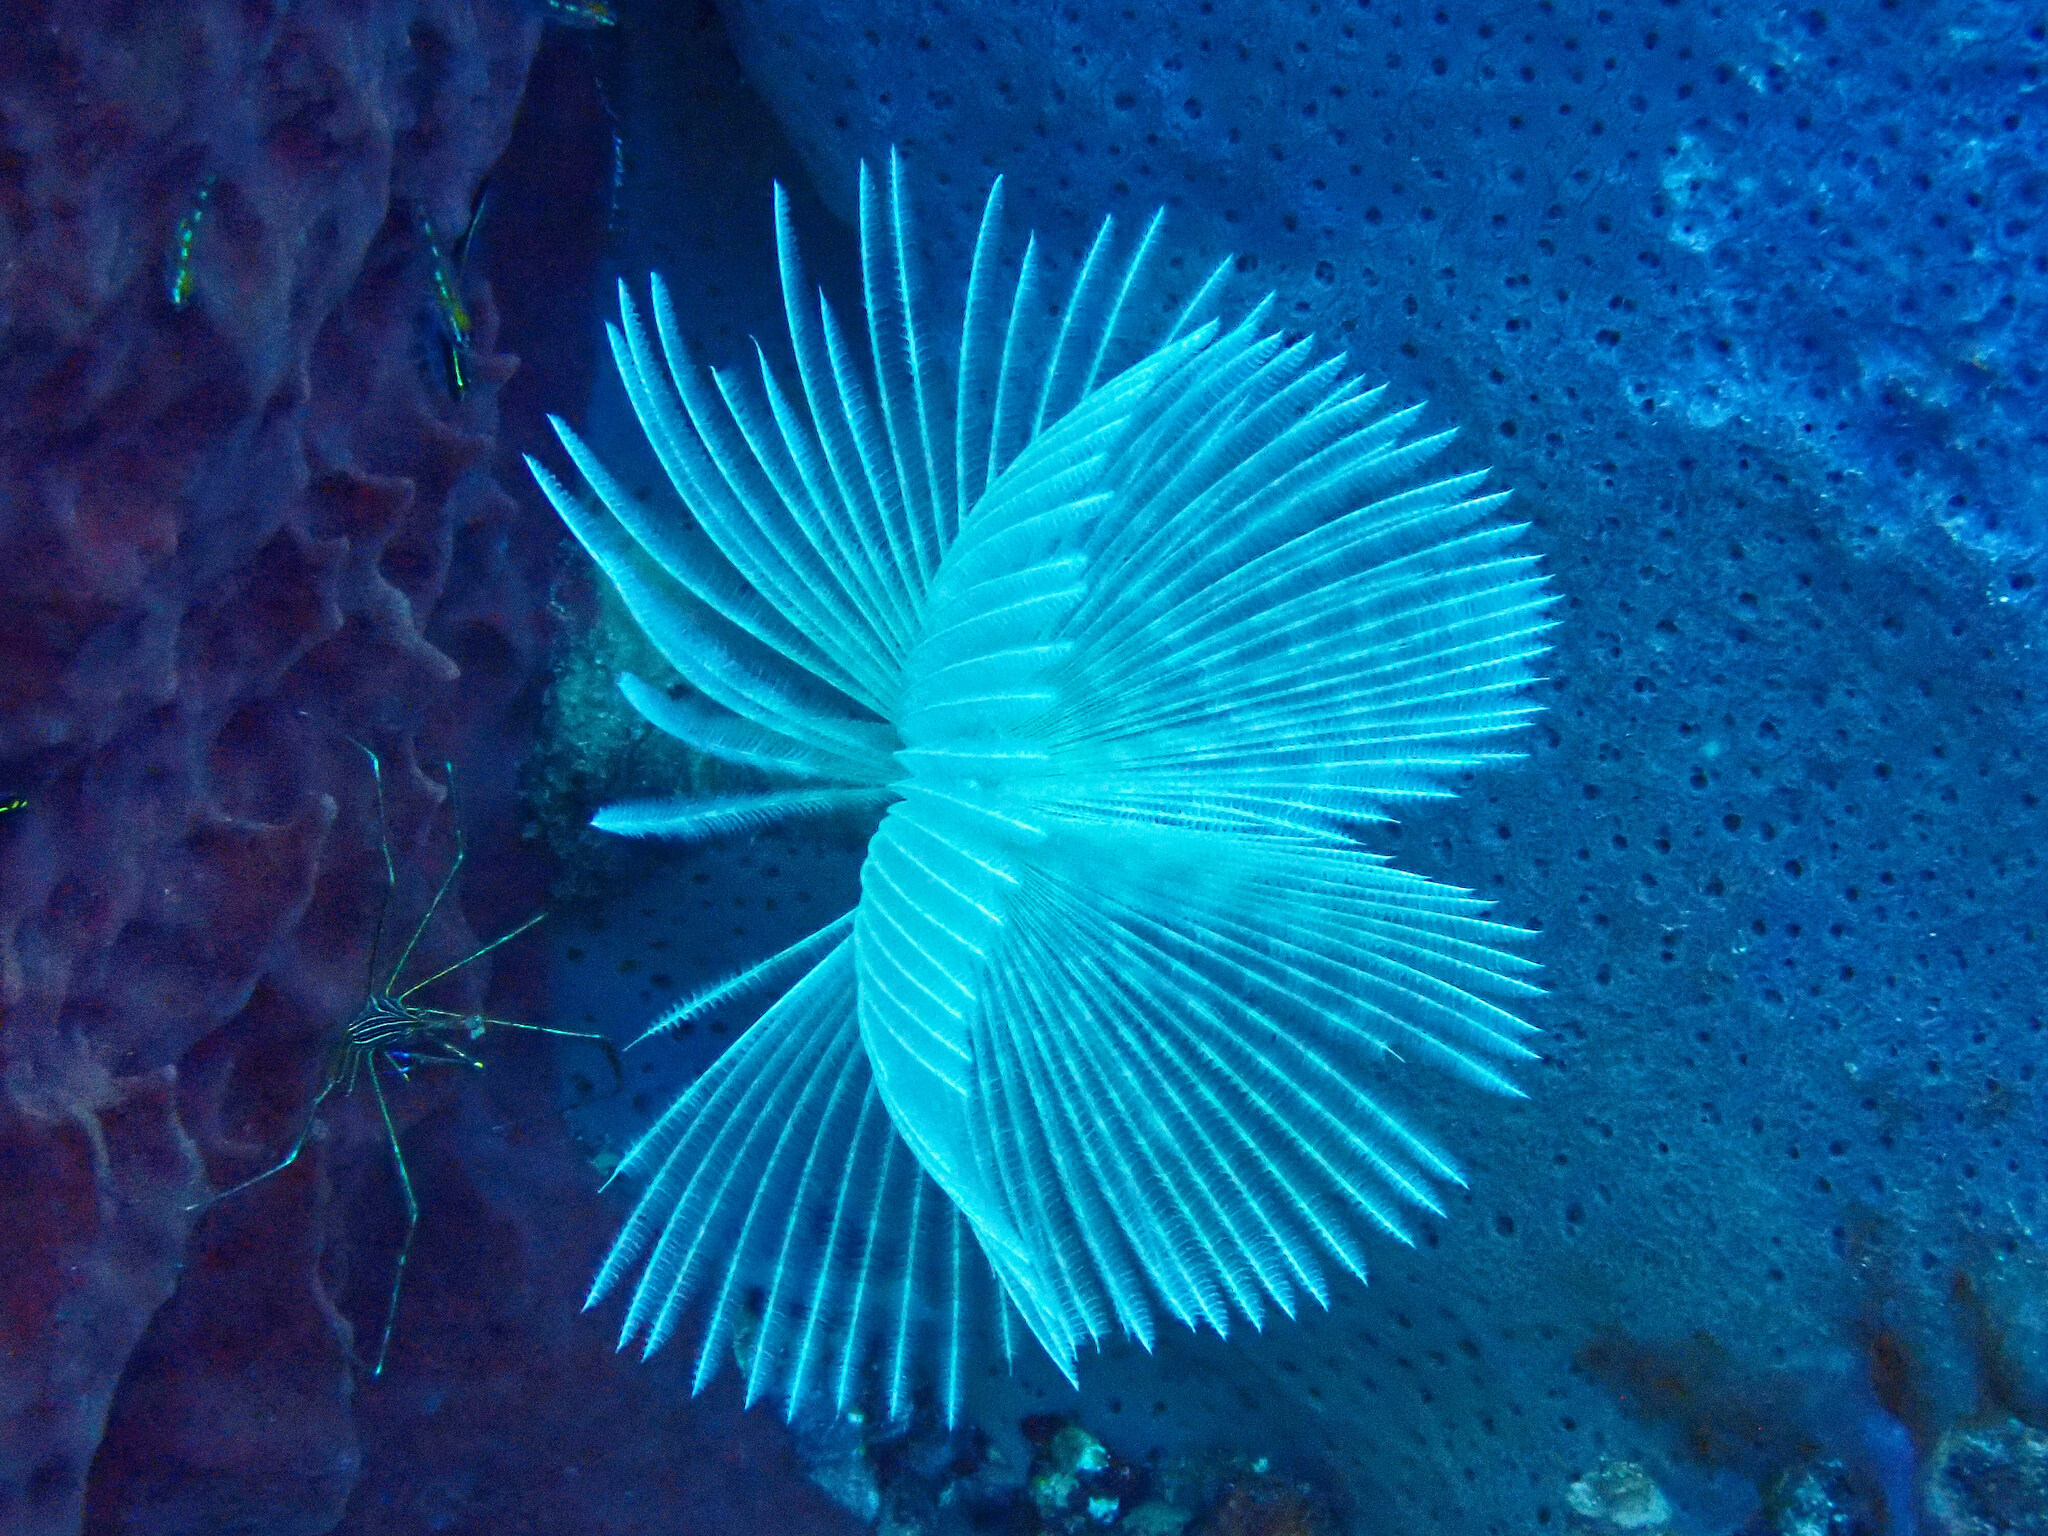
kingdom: Animalia
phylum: Annelida
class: Polychaeta
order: Sabellida
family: Sabellidae
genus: Sabellastarte
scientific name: Sabellastarte magnifica
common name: Giant feather-duster worm
